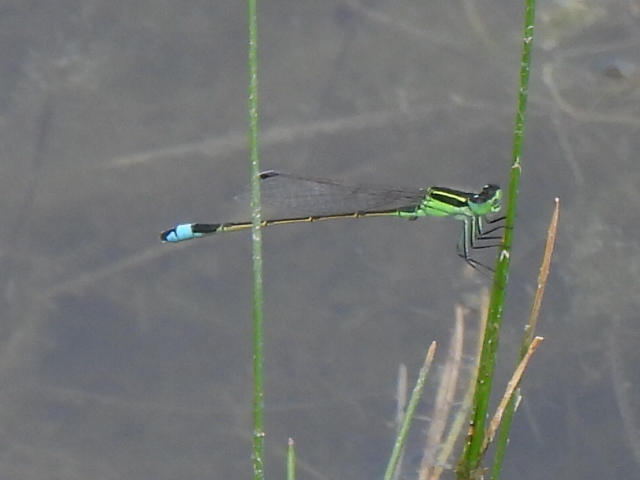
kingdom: Animalia
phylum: Arthropoda
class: Insecta
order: Odonata
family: Coenagrionidae
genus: Ischnura
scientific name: Ischnura ramburii
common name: Rambur's forktail
